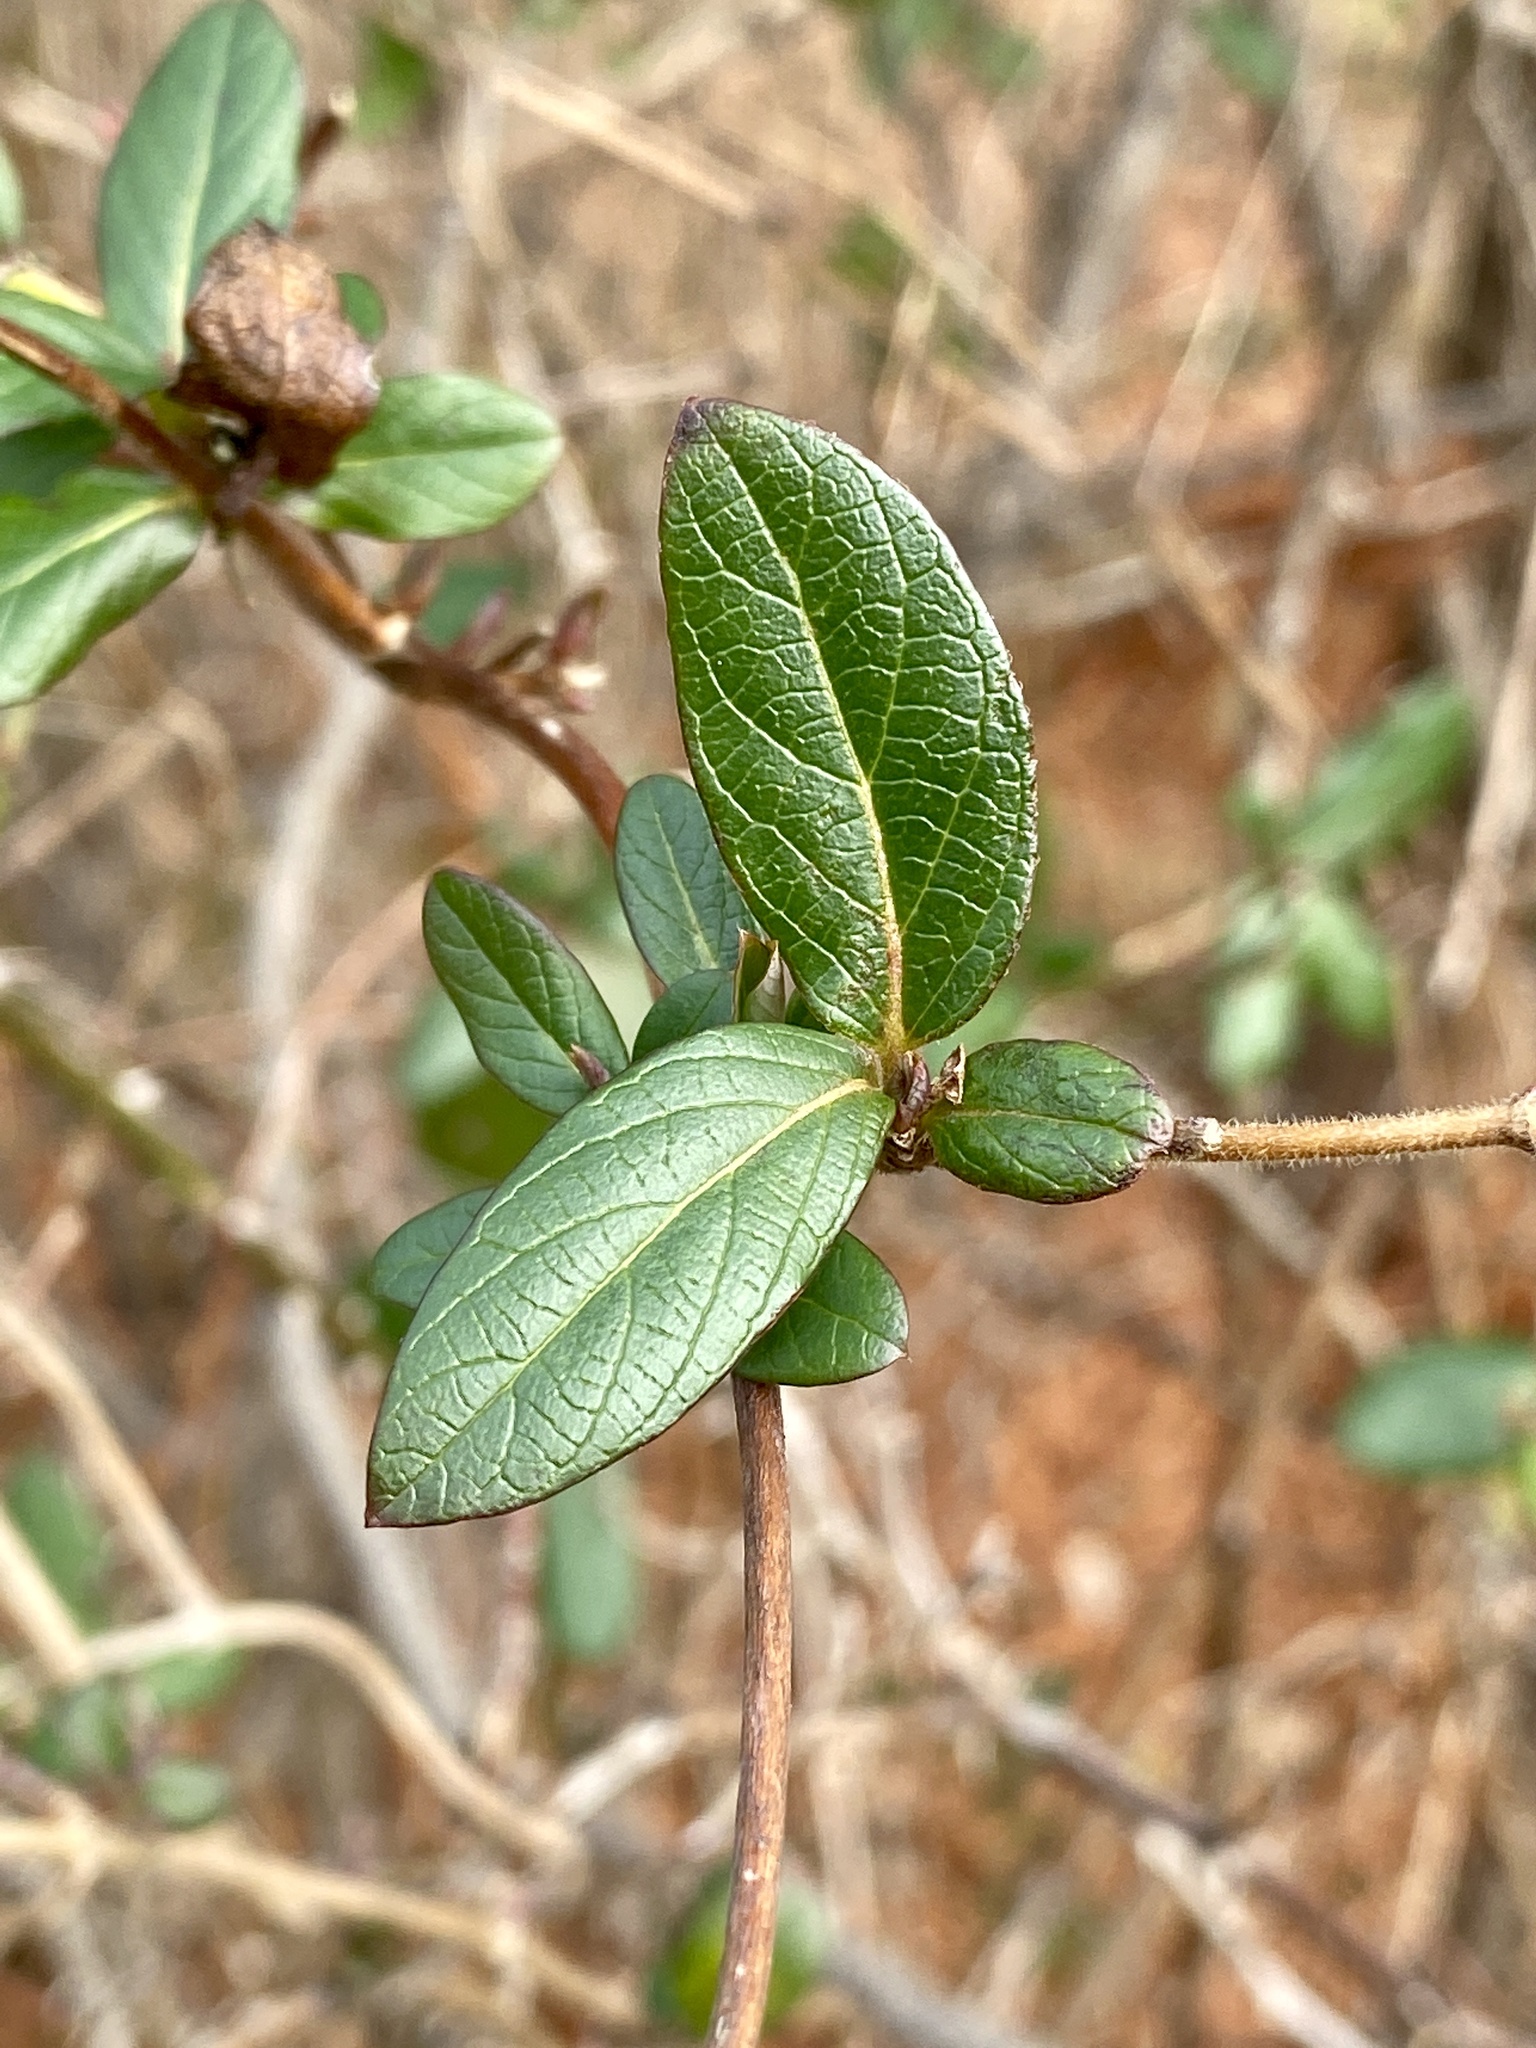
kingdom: Plantae
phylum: Tracheophyta
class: Magnoliopsida
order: Dipsacales
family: Caprifoliaceae
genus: Lonicera
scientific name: Lonicera japonica
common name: Japanese honeysuckle
